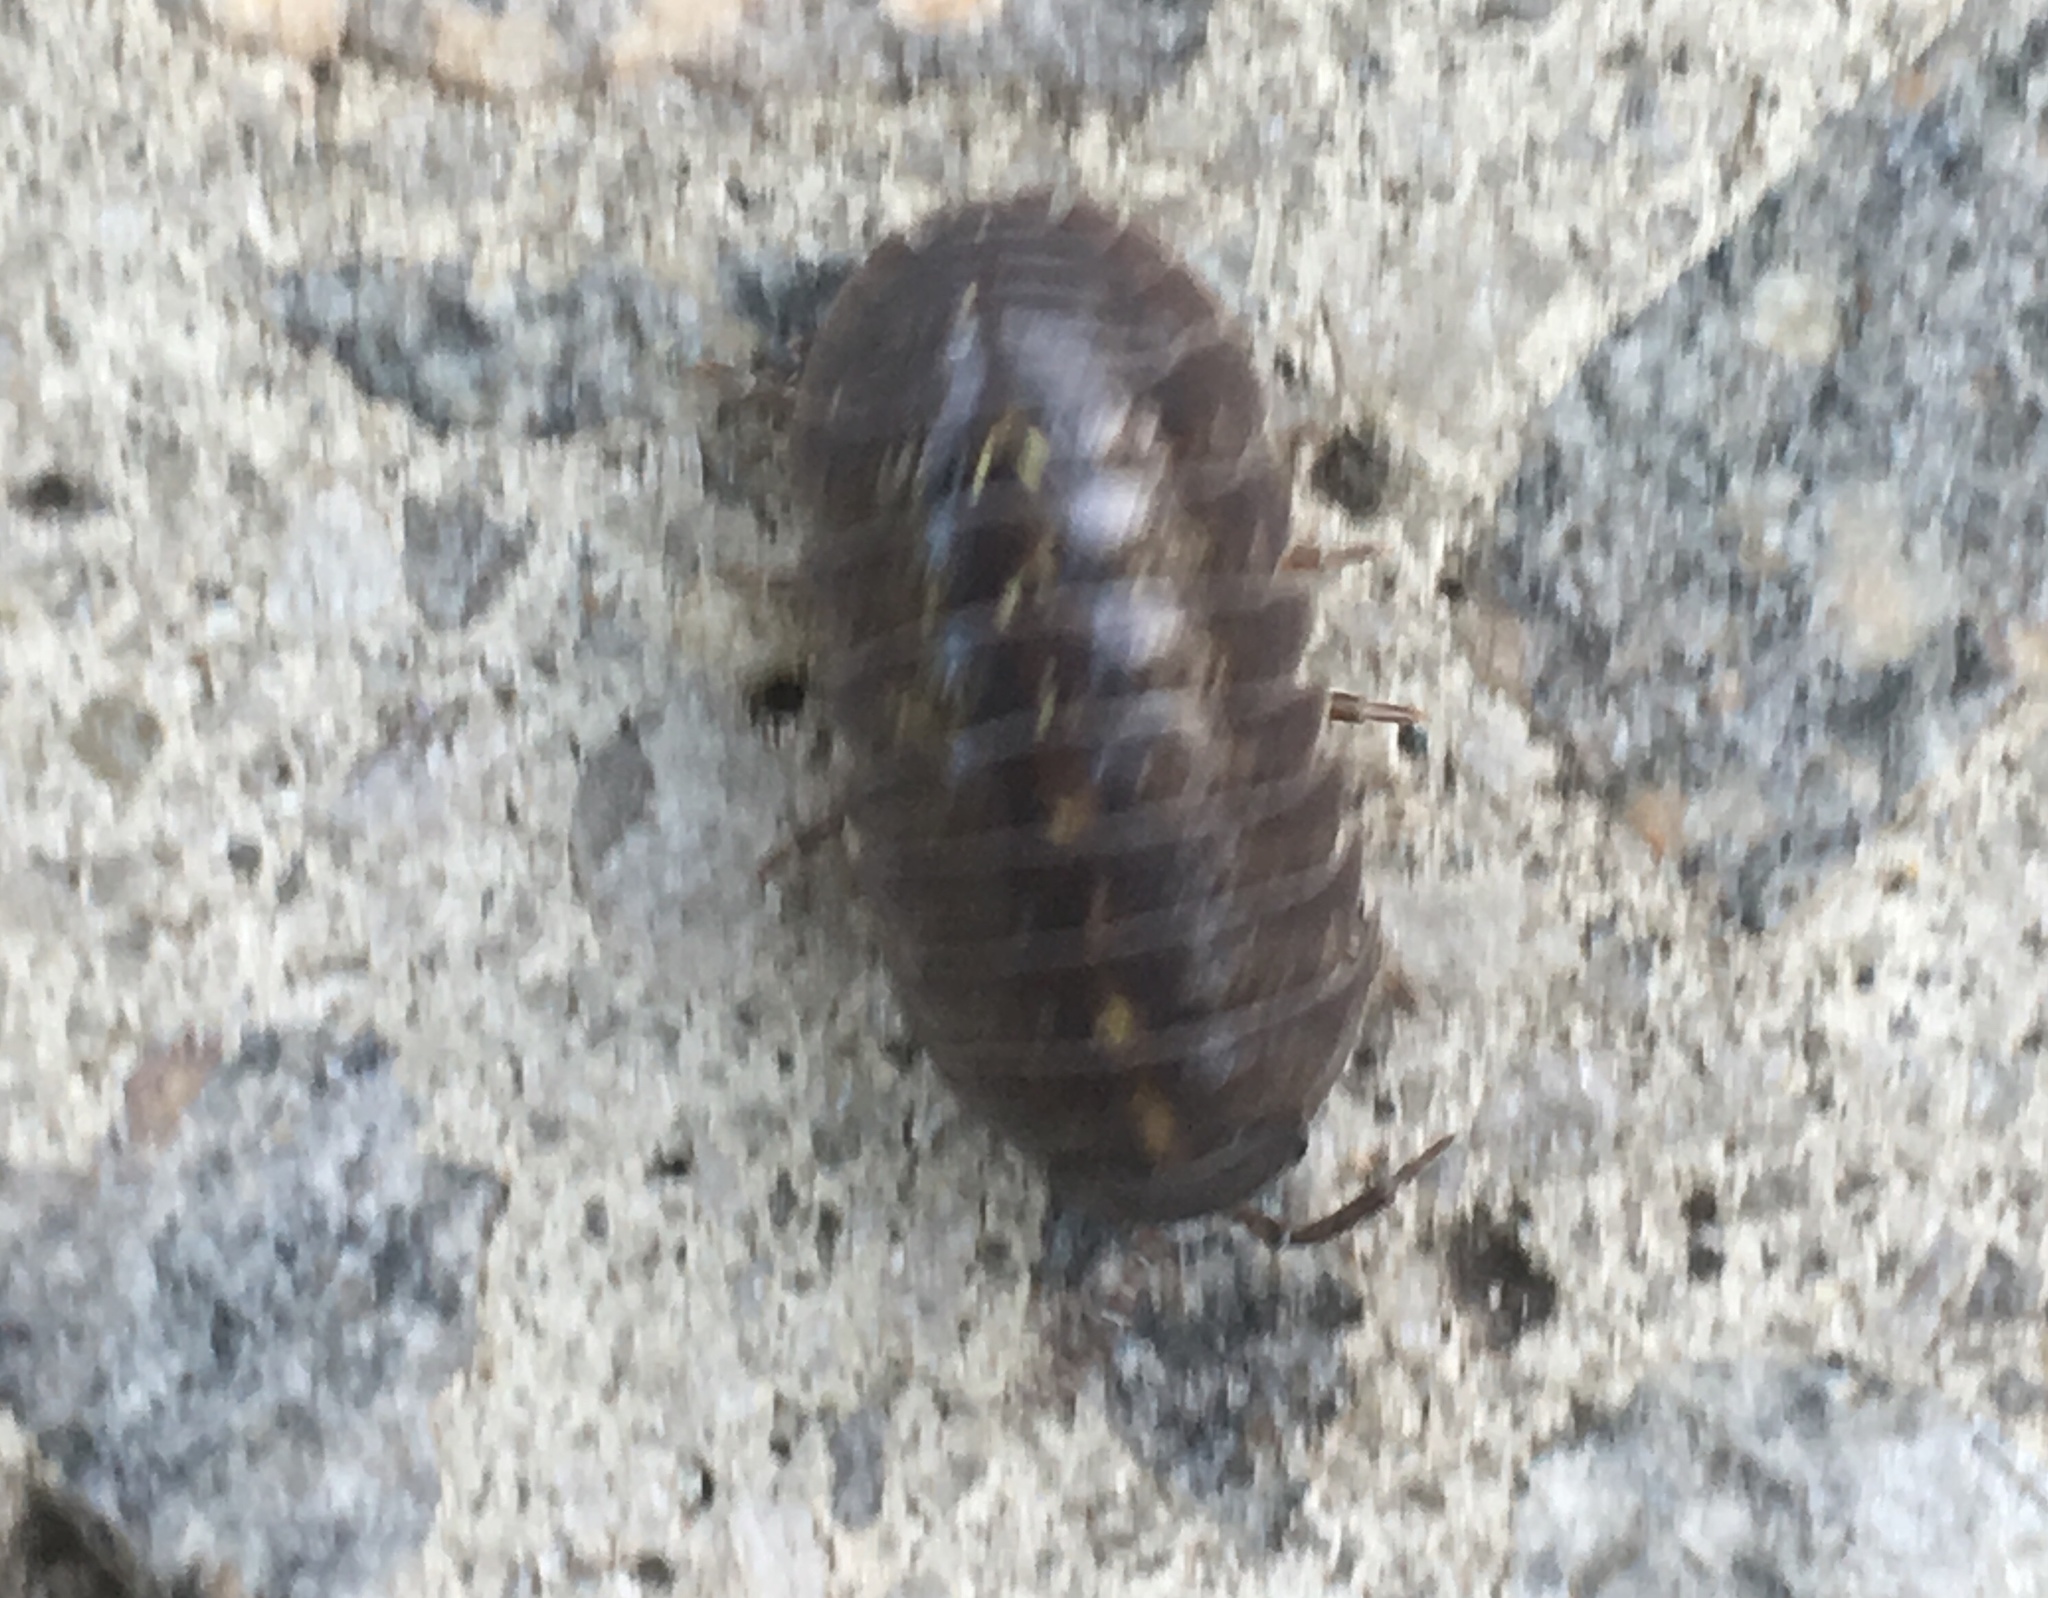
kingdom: Animalia
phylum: Arthropoda
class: Malacostraca
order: Isopoda
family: Armadillidiidae
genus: Armadillidium
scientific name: Armadillidium vulgare
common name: Common pill woodlouse
